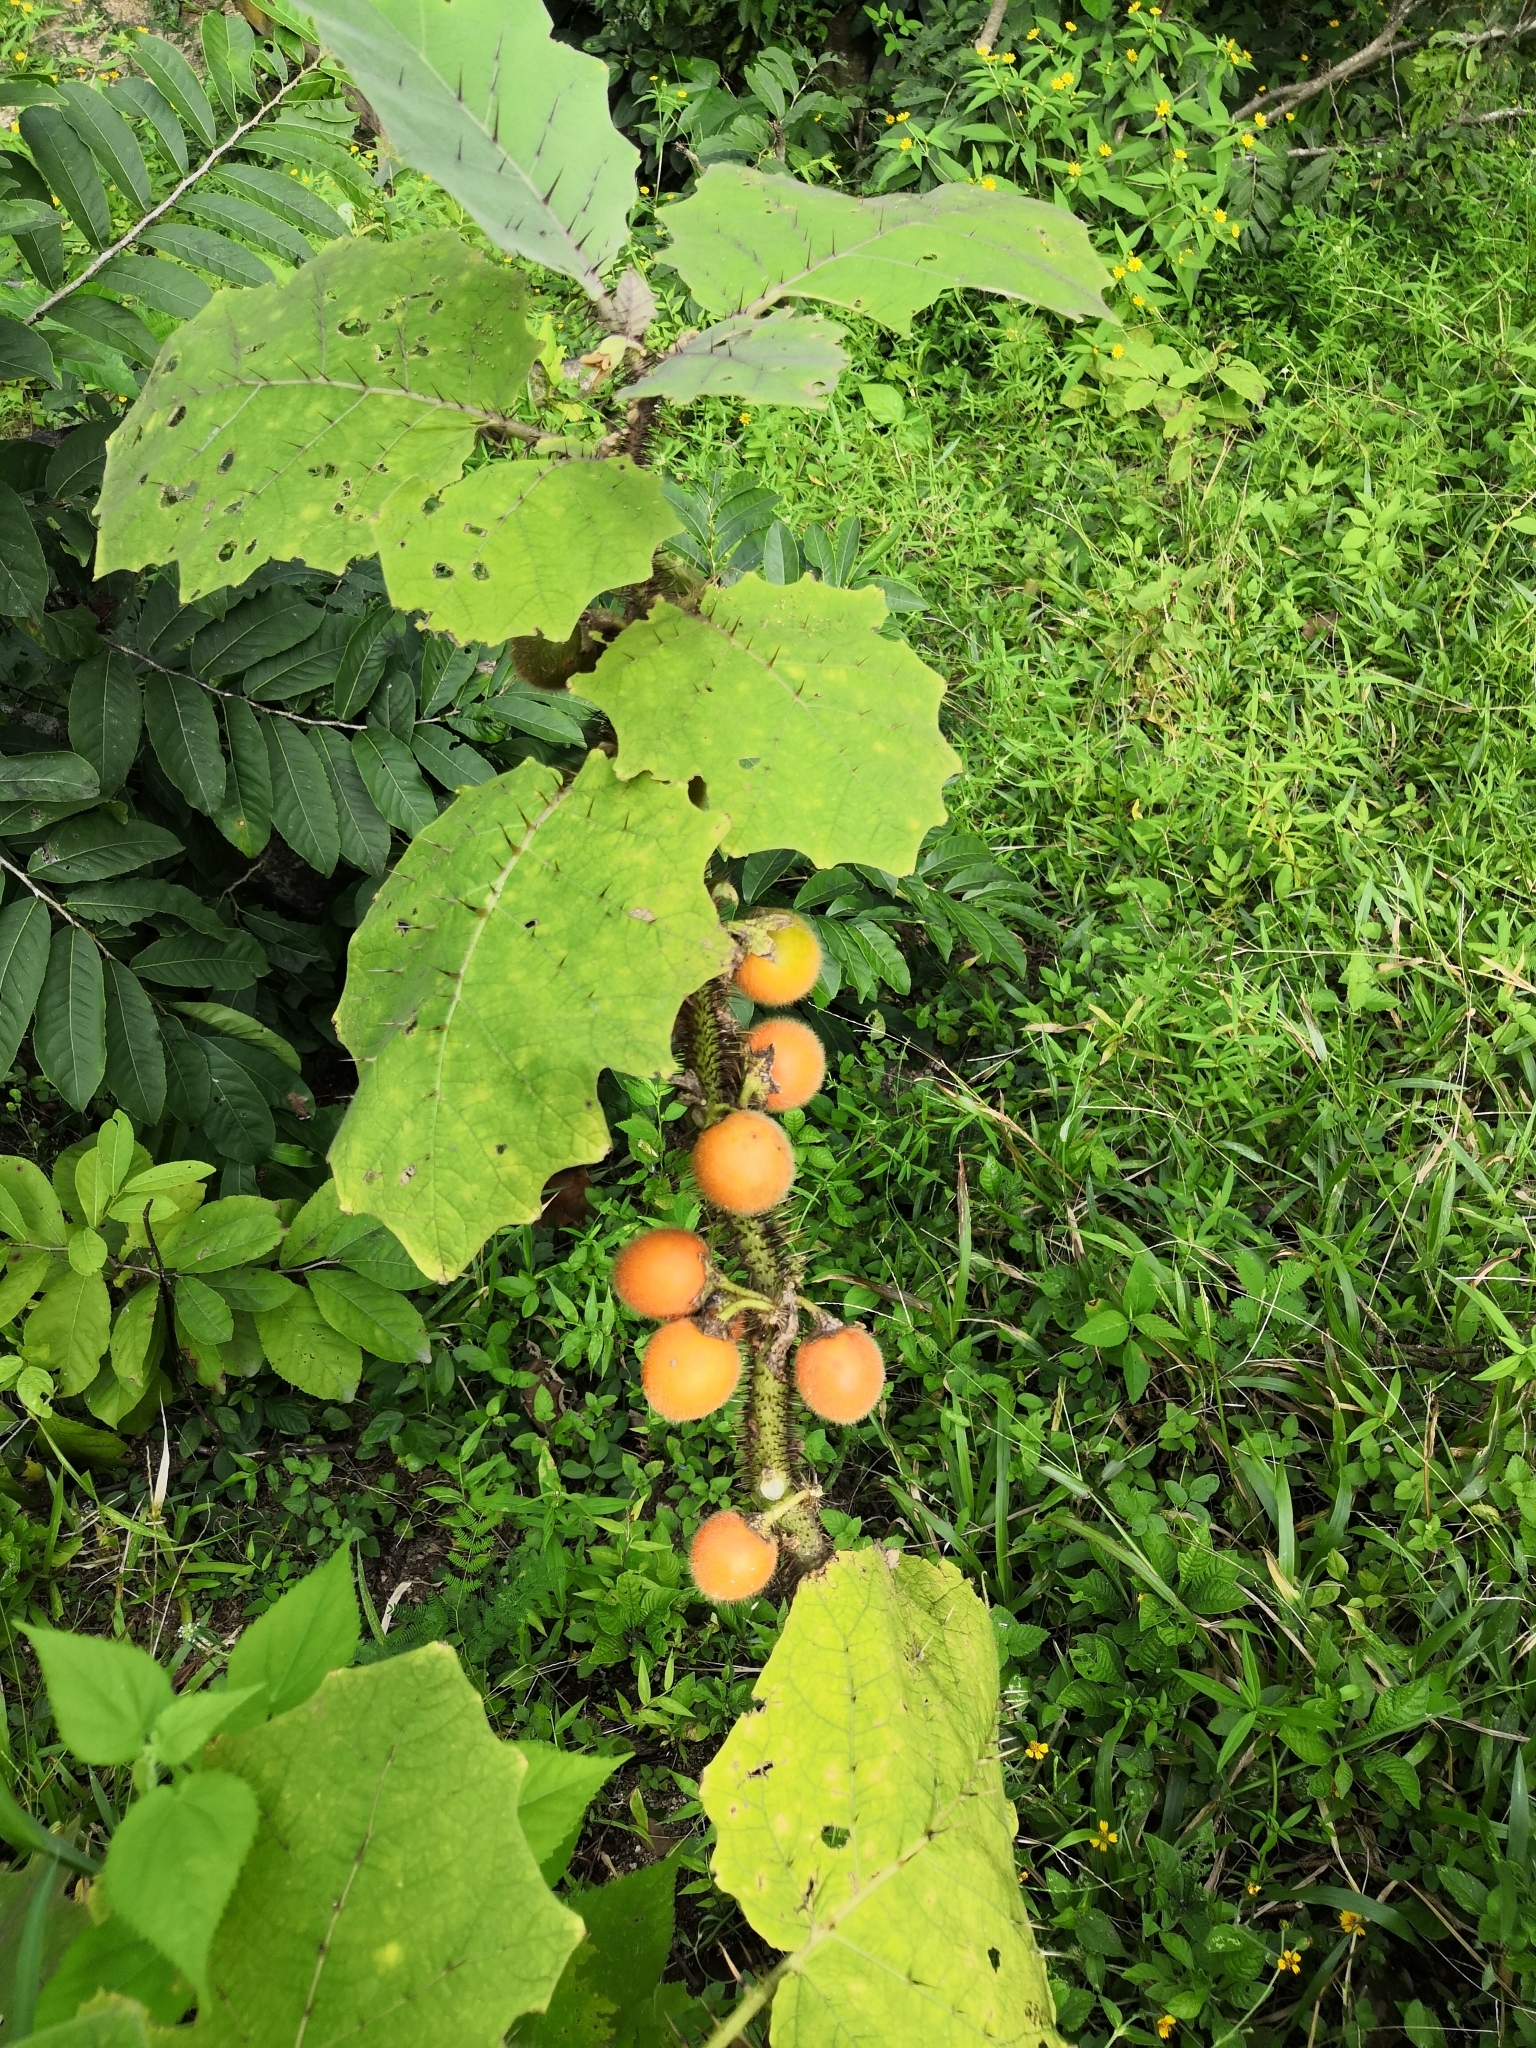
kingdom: Plantae
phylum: Tracheophyta
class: Magnoliopsida
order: Solanales
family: Solanaceae
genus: Solanum
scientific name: Solanum candidum
